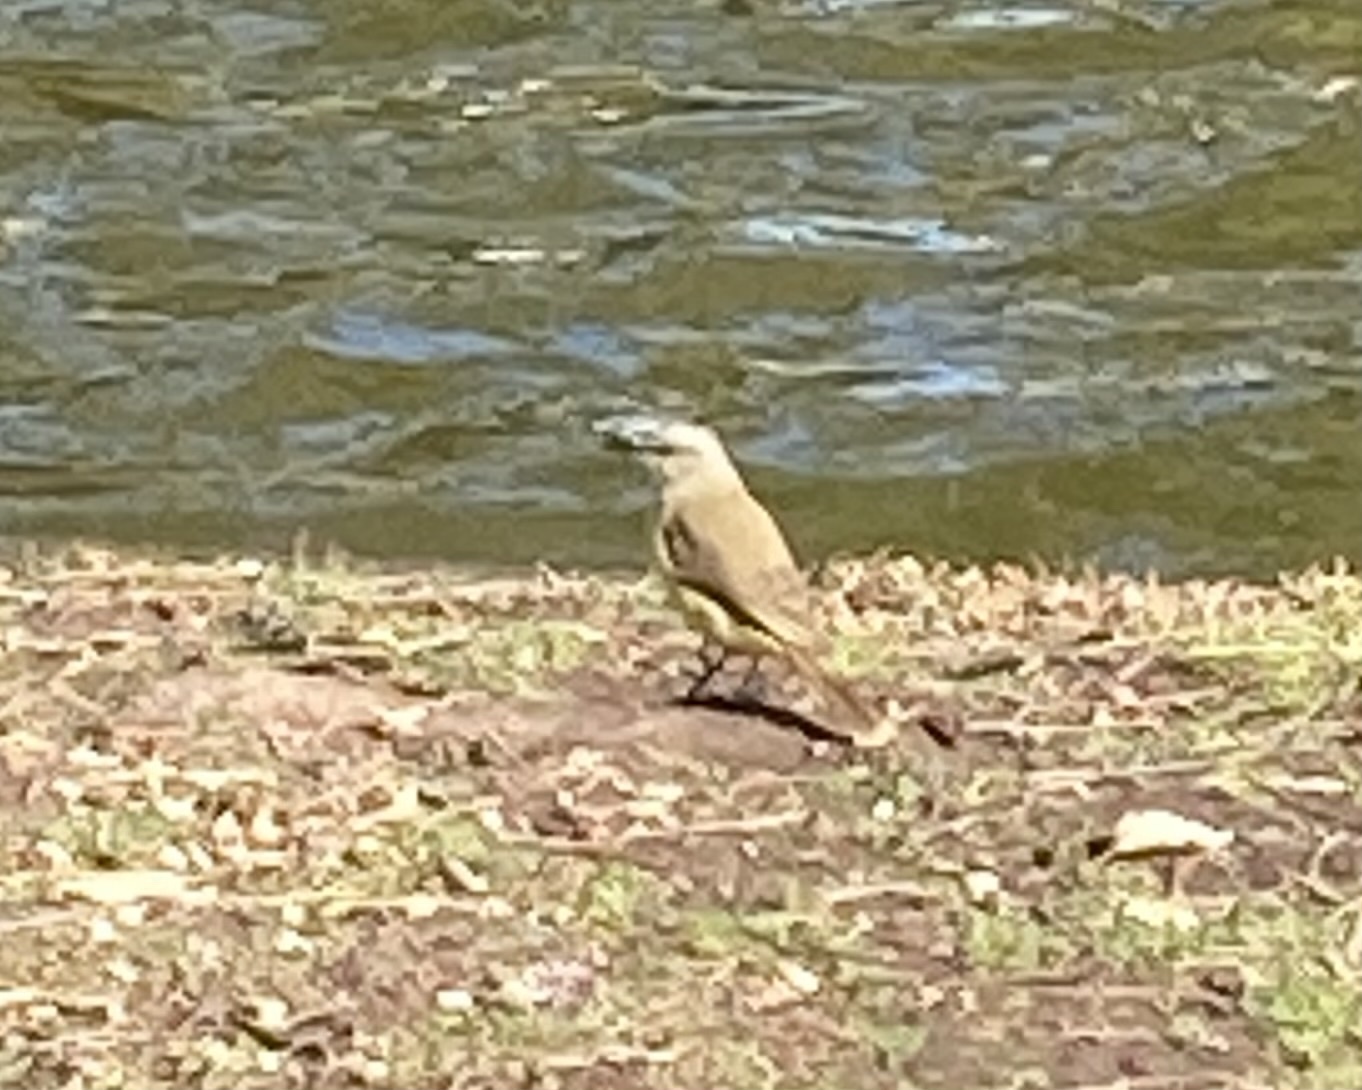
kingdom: Animalia
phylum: Chordata
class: Aves
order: Passeriformes
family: Tyrannidae
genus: Machetornis
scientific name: Machetornis rixosa
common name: Cattle tyrant
